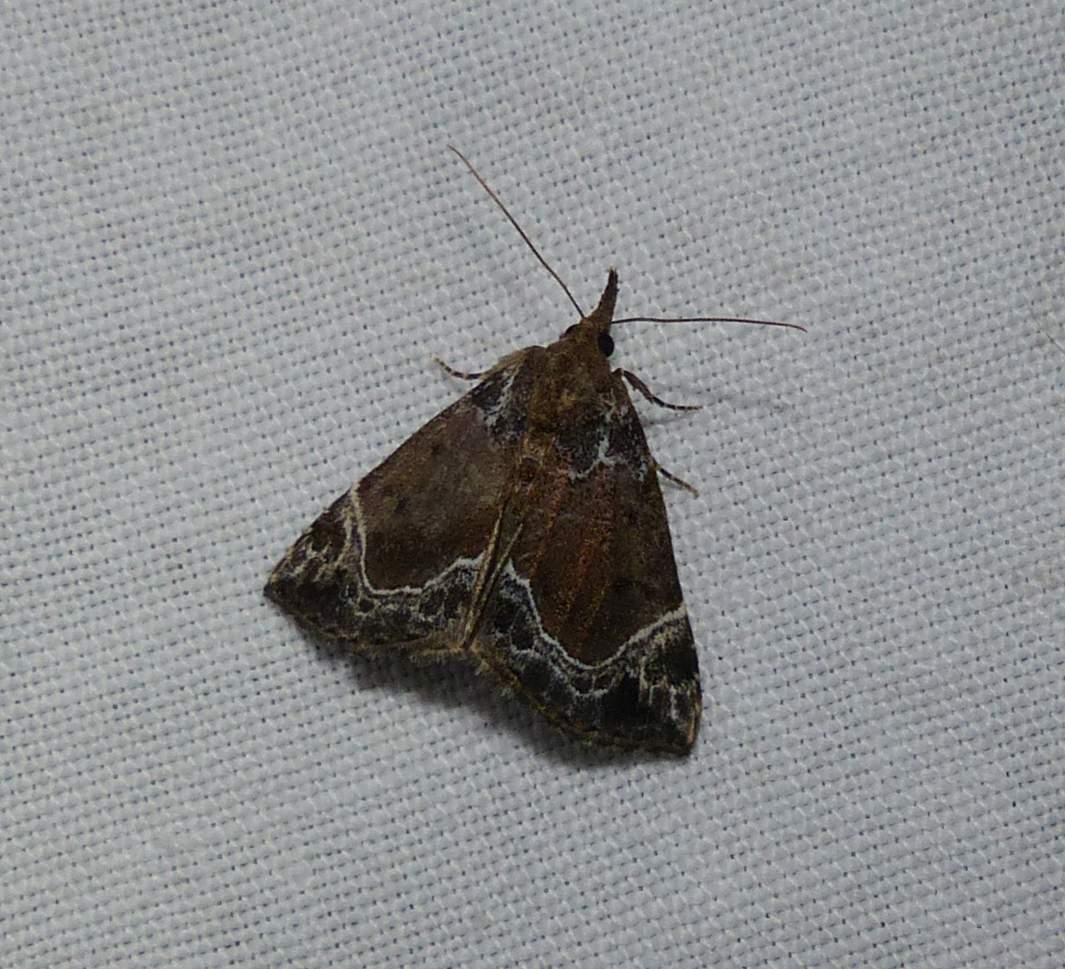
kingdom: Animalia
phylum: Arthropoda
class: Insecta
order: Lepidoptera
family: Erebidae
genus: Hypena
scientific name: Hypena abalienalis
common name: White-lined snout
